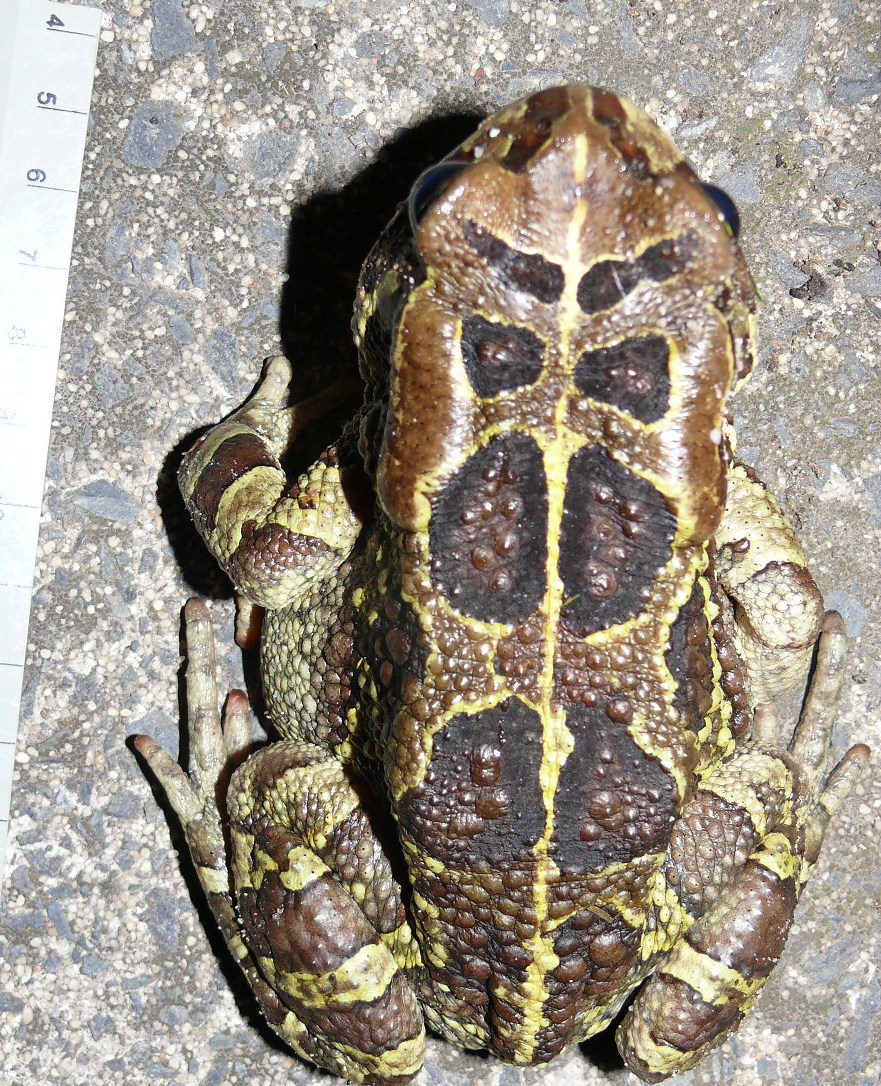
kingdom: Animalia
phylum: Chordata
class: Amphibia
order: Anura
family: Bufonidae
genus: Sclerophrys
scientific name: Sclerophrys pantherina
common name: Panther toad
